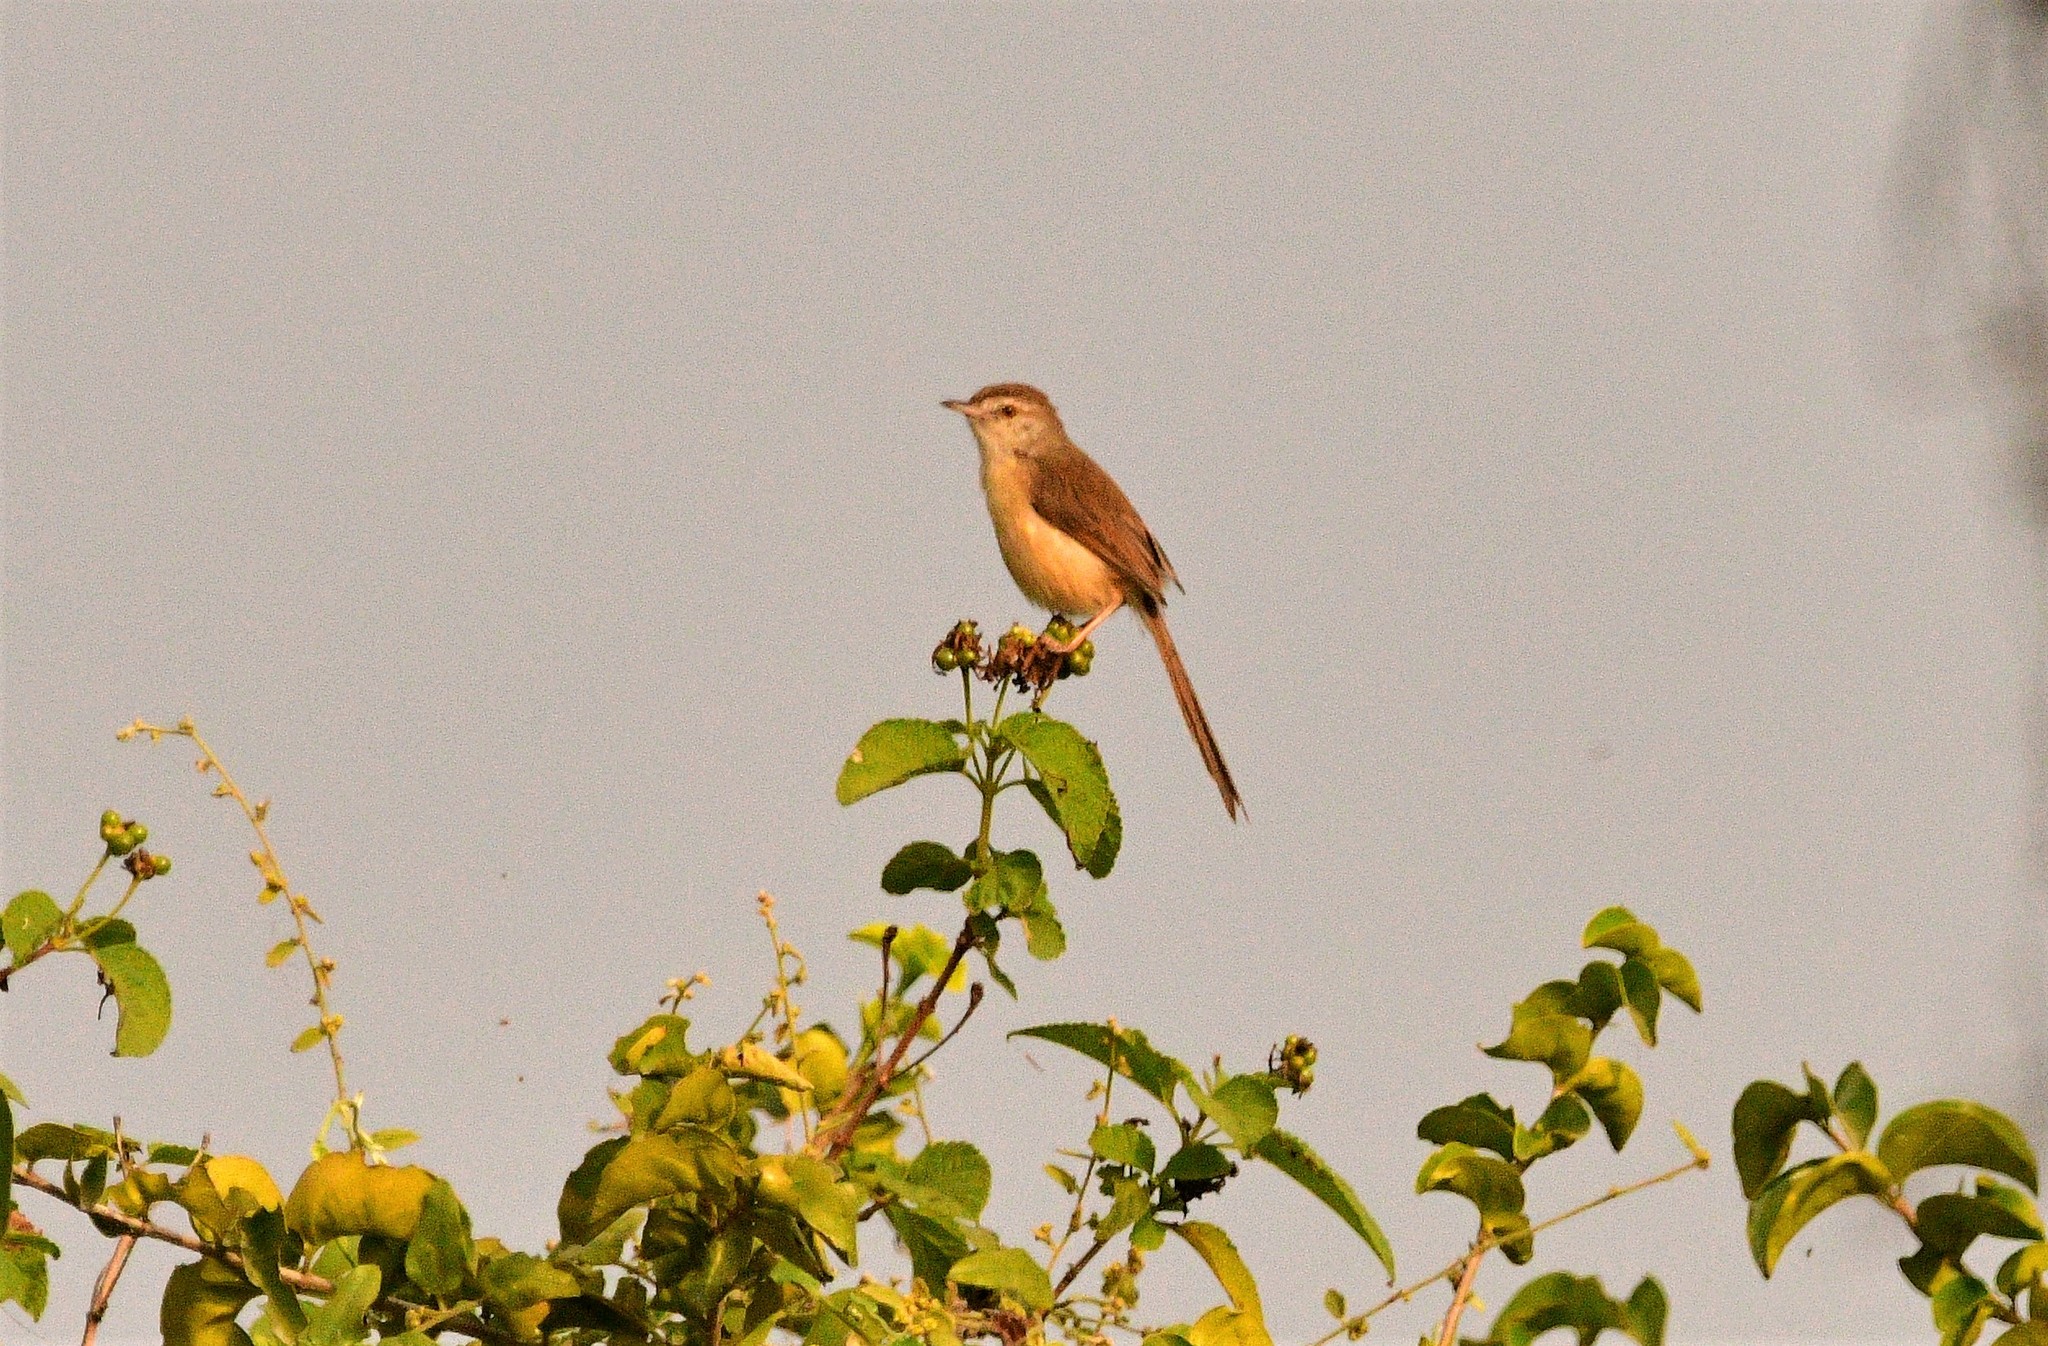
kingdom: Animalia
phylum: Chordata
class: Aves
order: Passeriformes
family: Cisticolidae
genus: Prinia
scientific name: Prinia inornata
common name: Plain prinia
